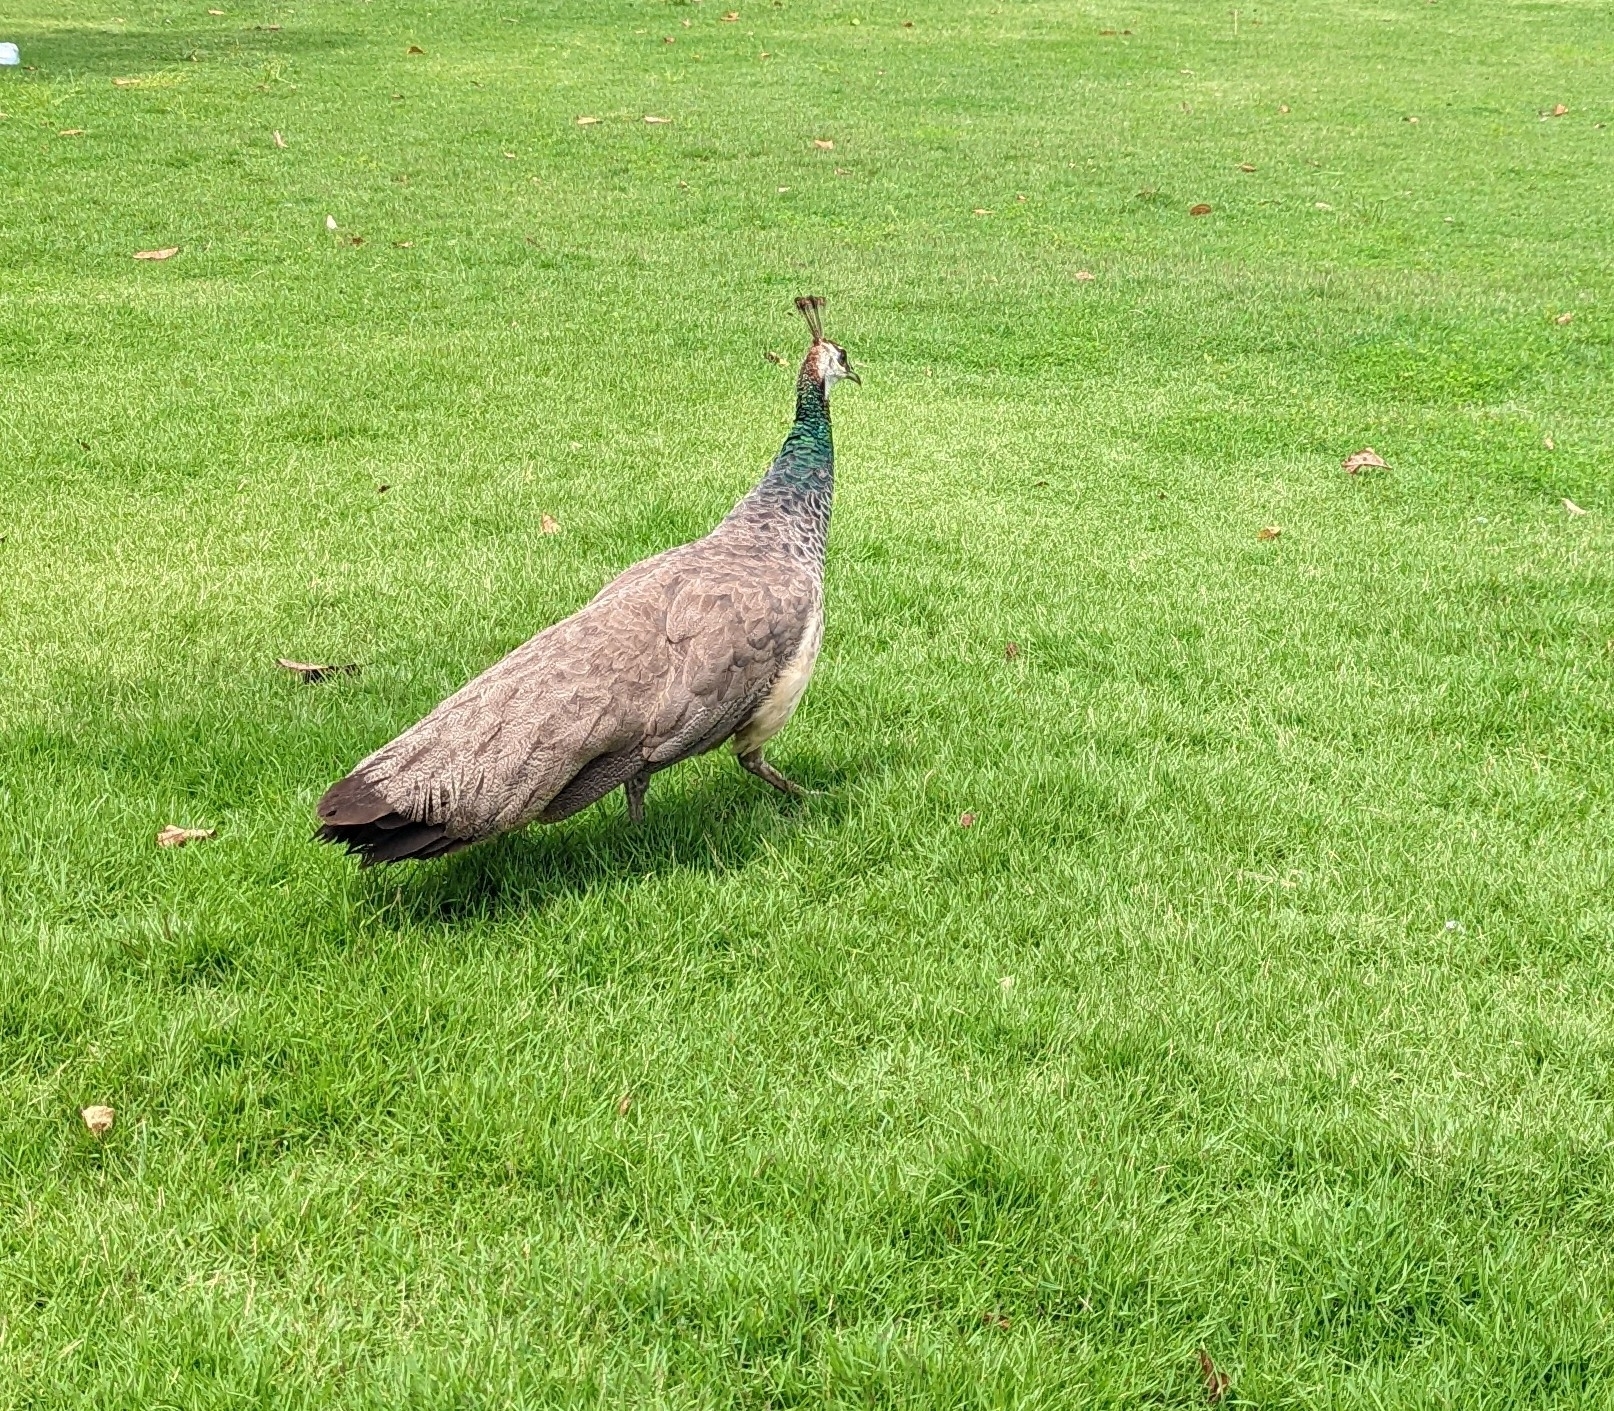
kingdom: Animalia
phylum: Chordata
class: Aves
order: Galliformes
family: Phasianidae
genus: Pavo
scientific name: Pavo cristatus
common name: Indian peafowl
